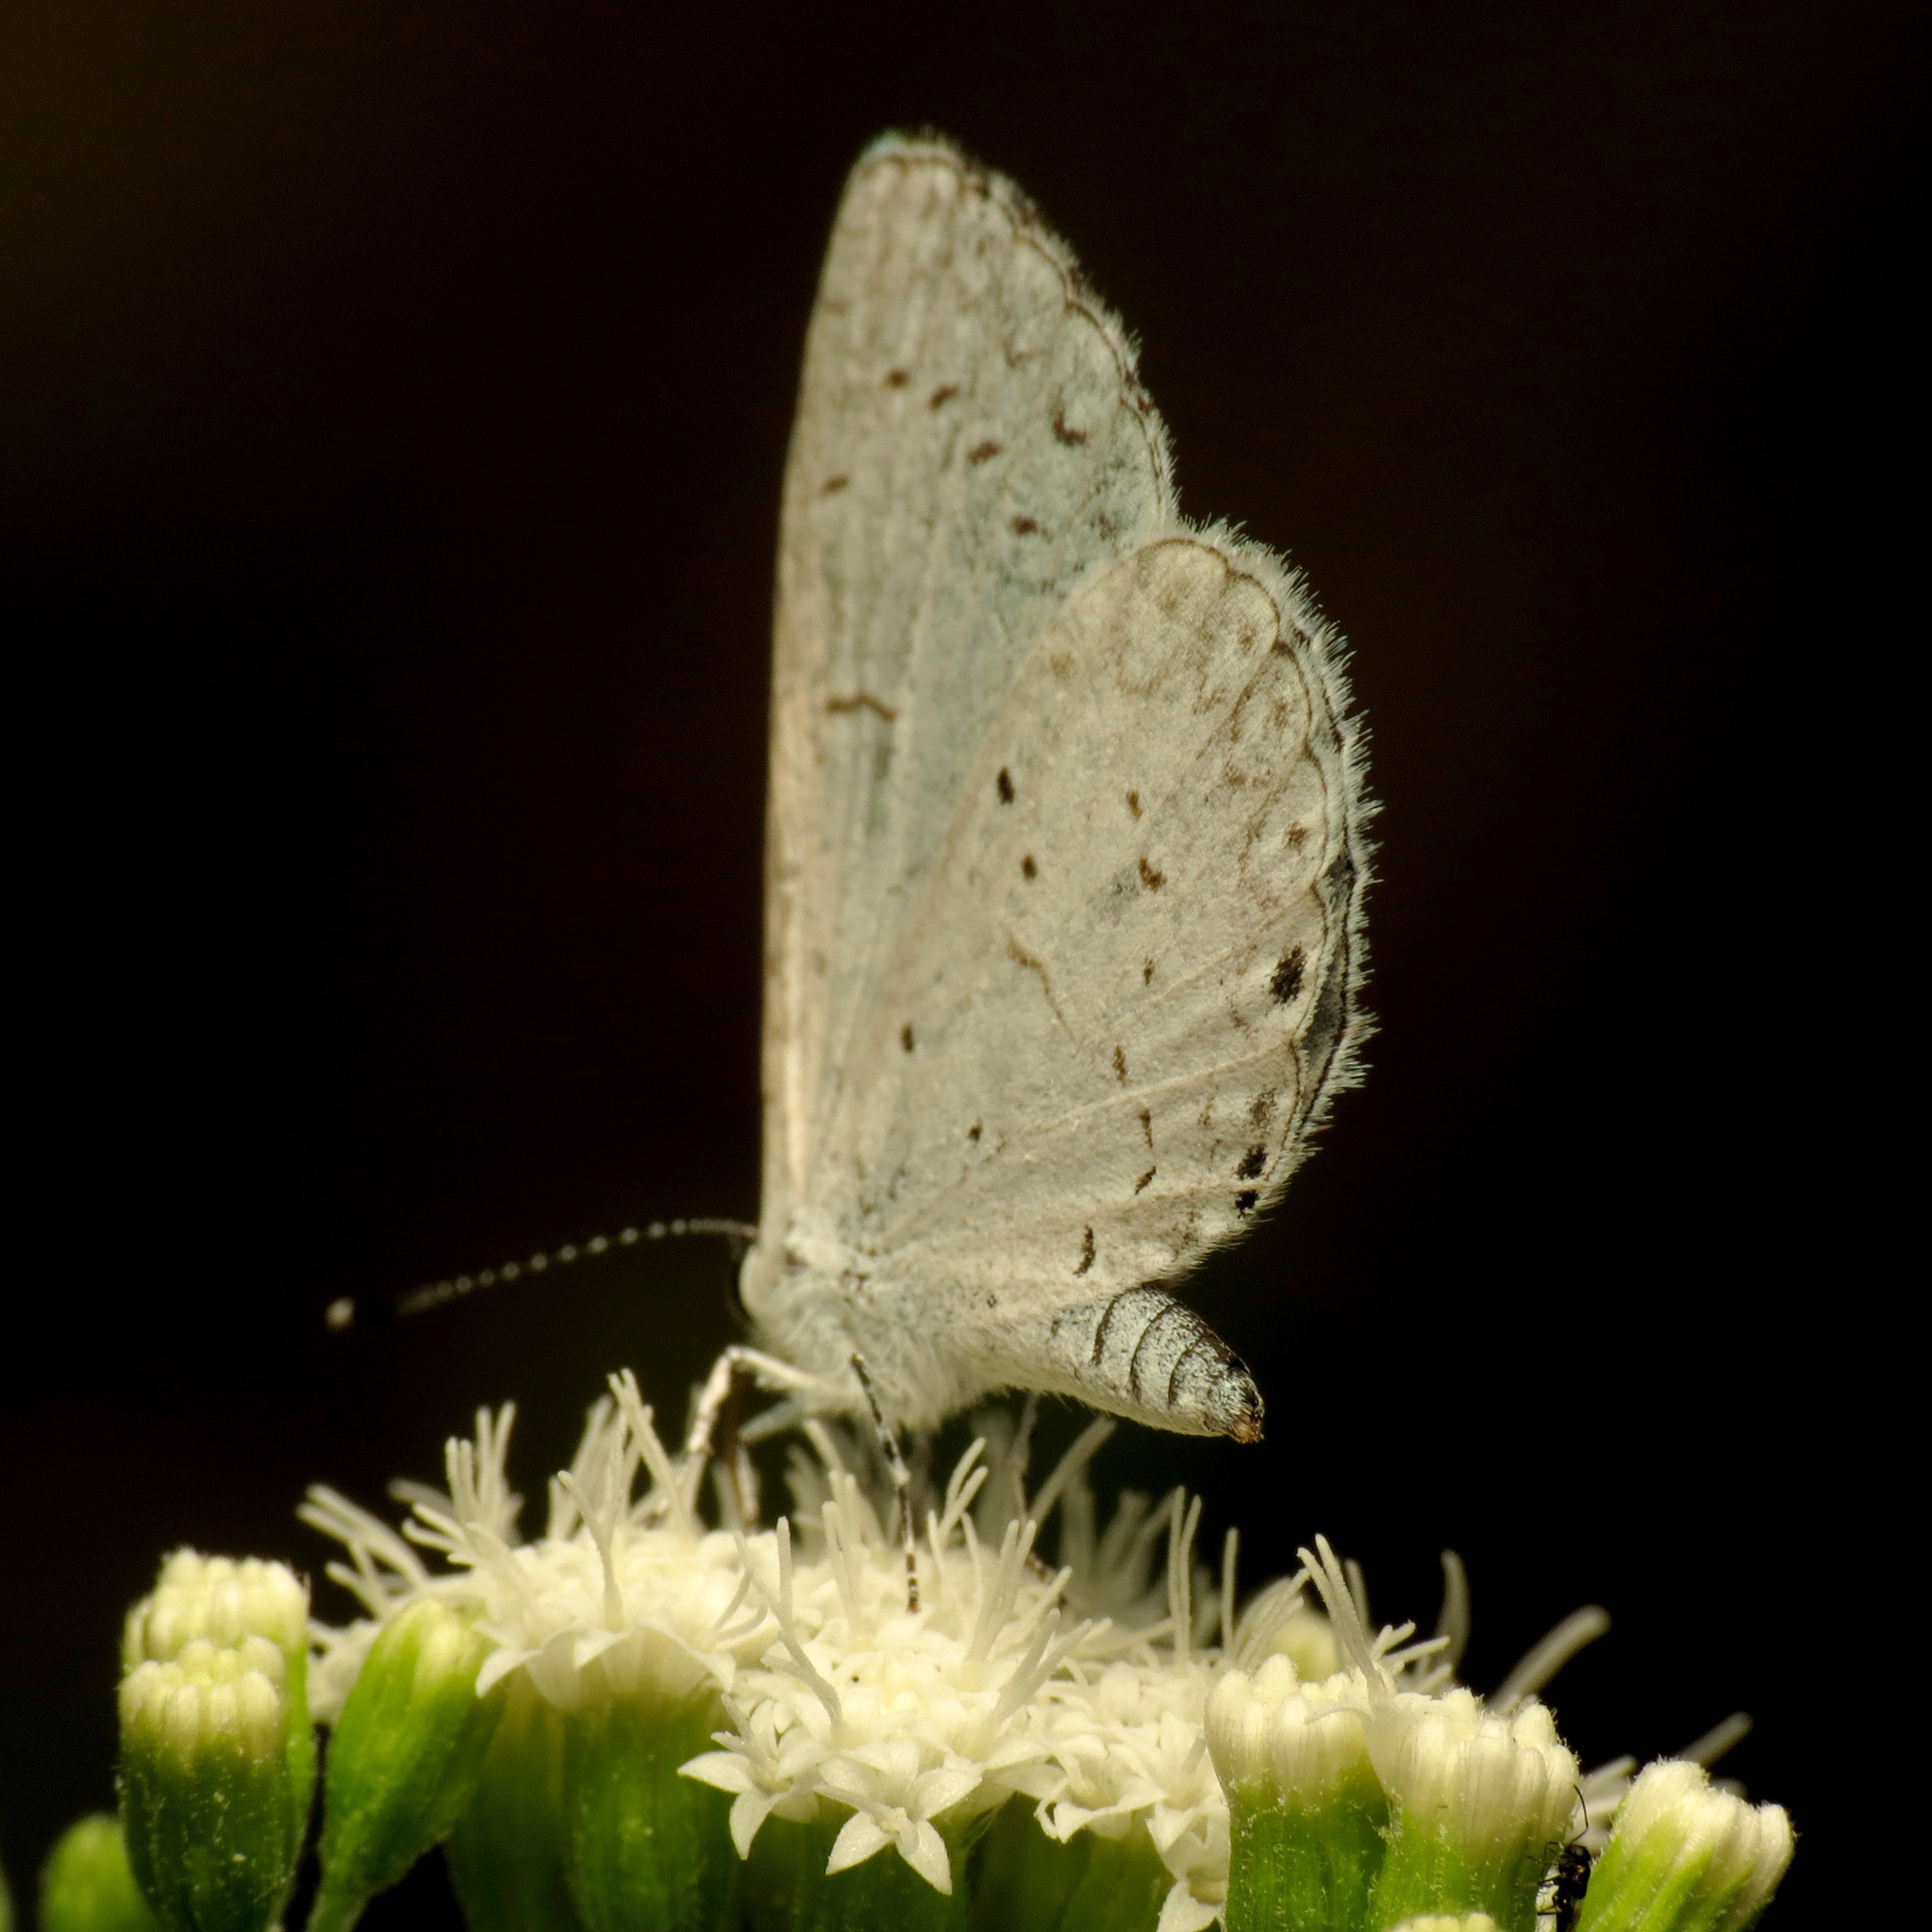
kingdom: Animalia
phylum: Arthropoda
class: Insecta
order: Lepidoptera
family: Lycaenidae
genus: Cyaniris
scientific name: Cyaniris neglecta
